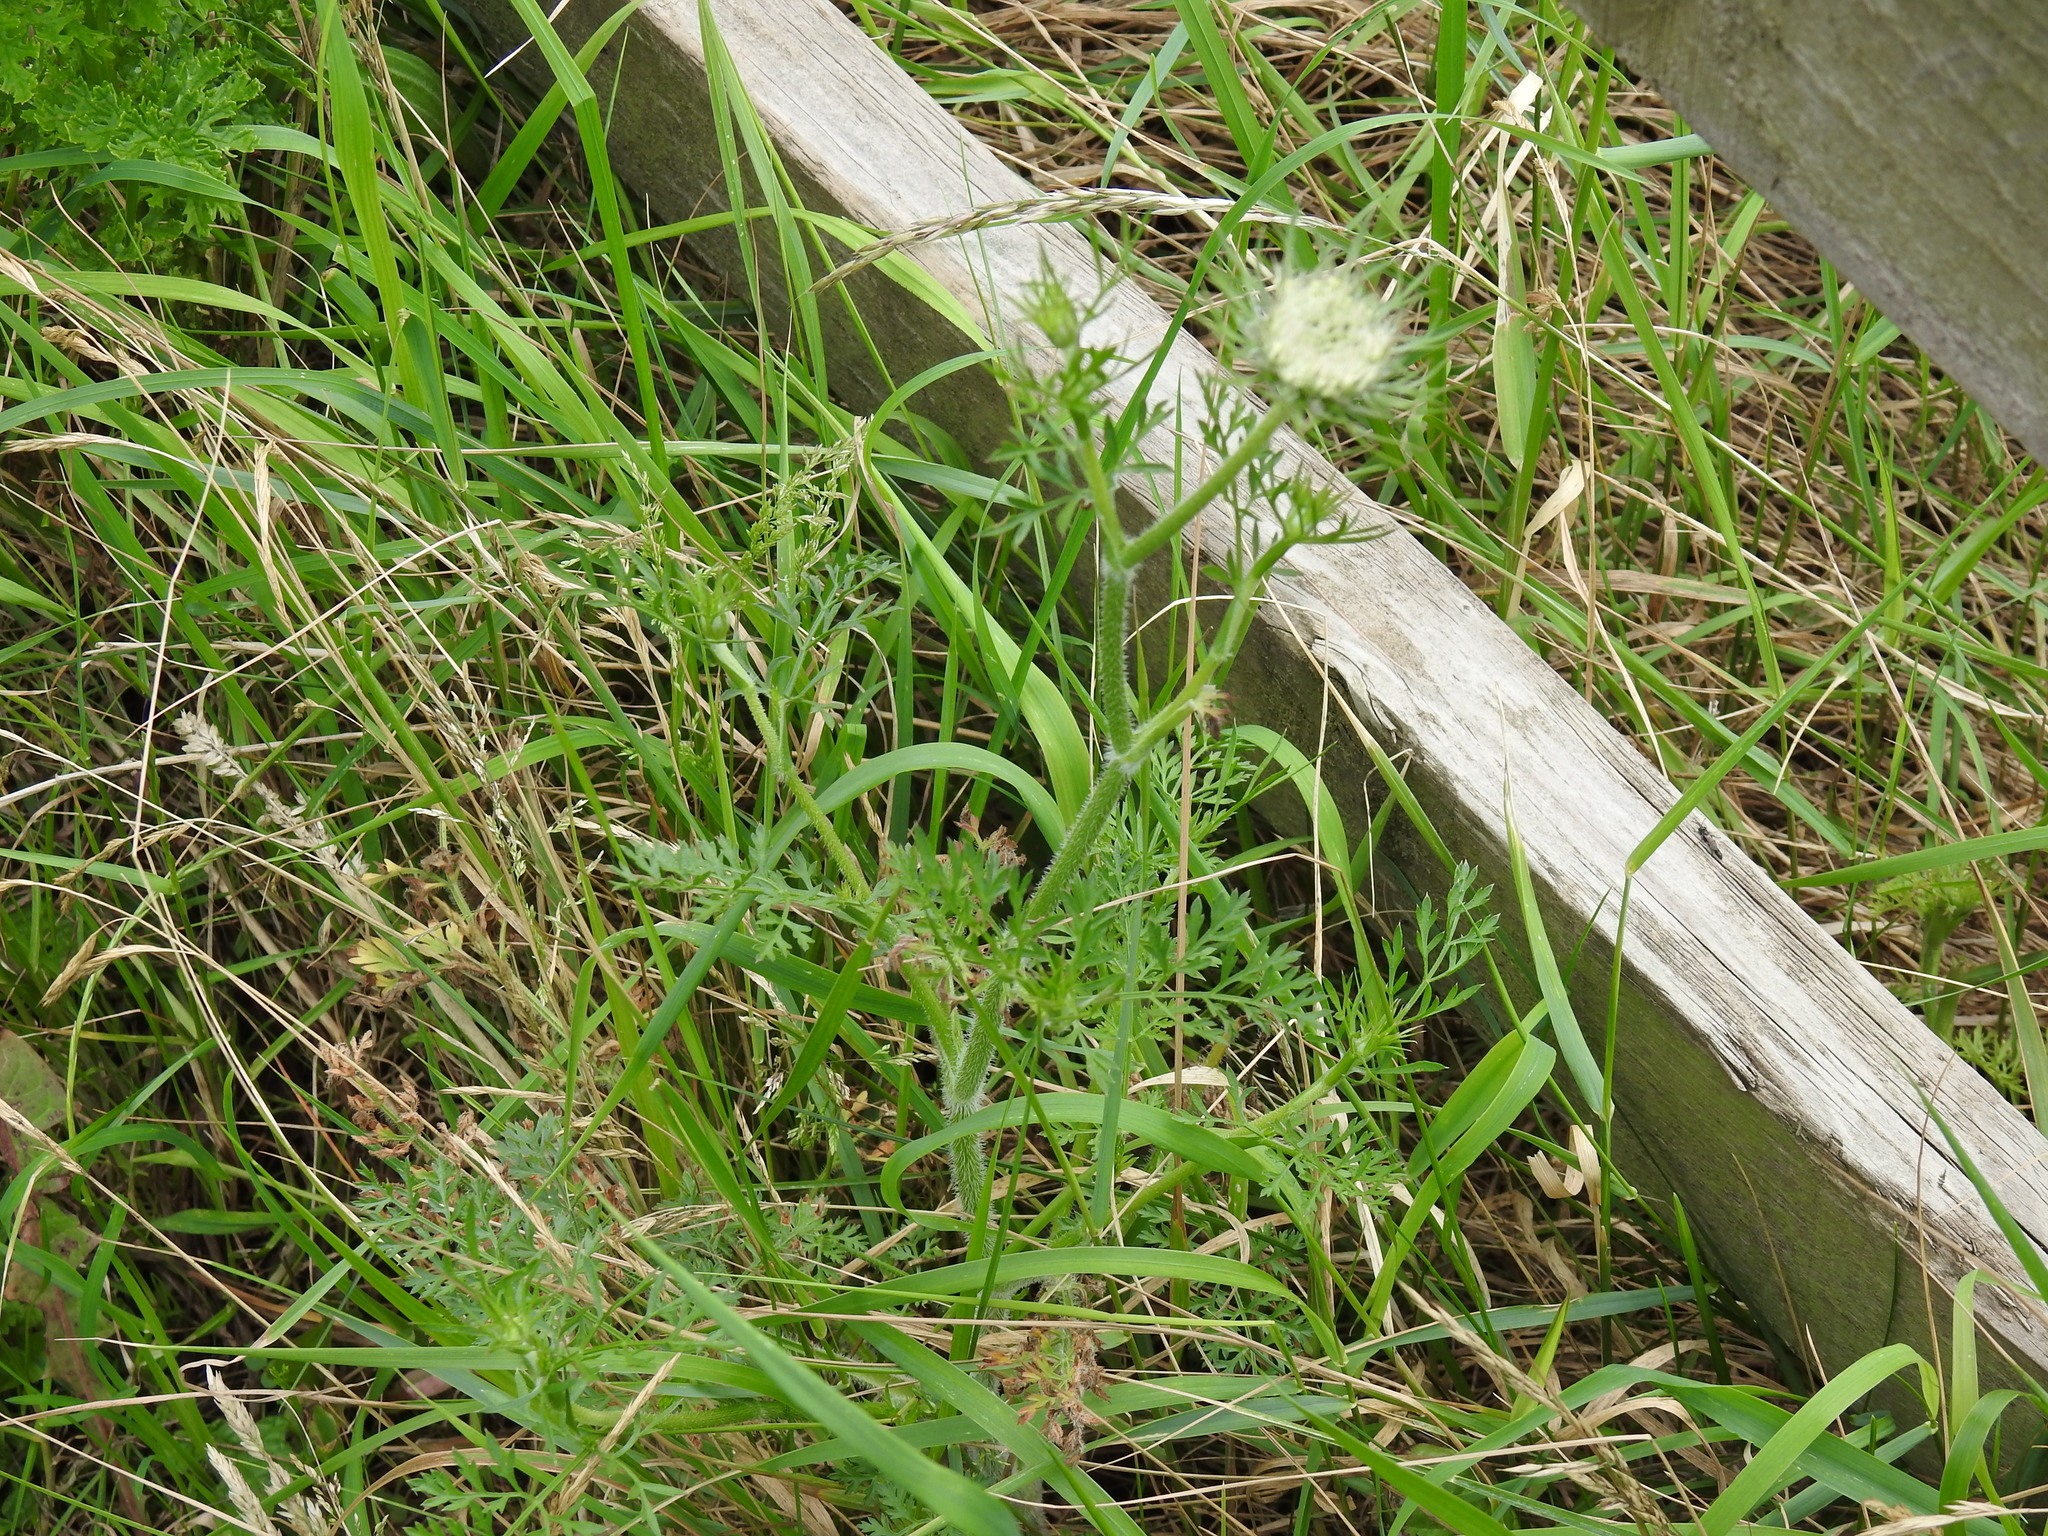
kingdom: Plantae
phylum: Tracheophyta
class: Magnoliopsida
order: Apiales
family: Apiaceae
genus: Daucus
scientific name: Daucus carota
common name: Wild carrot
